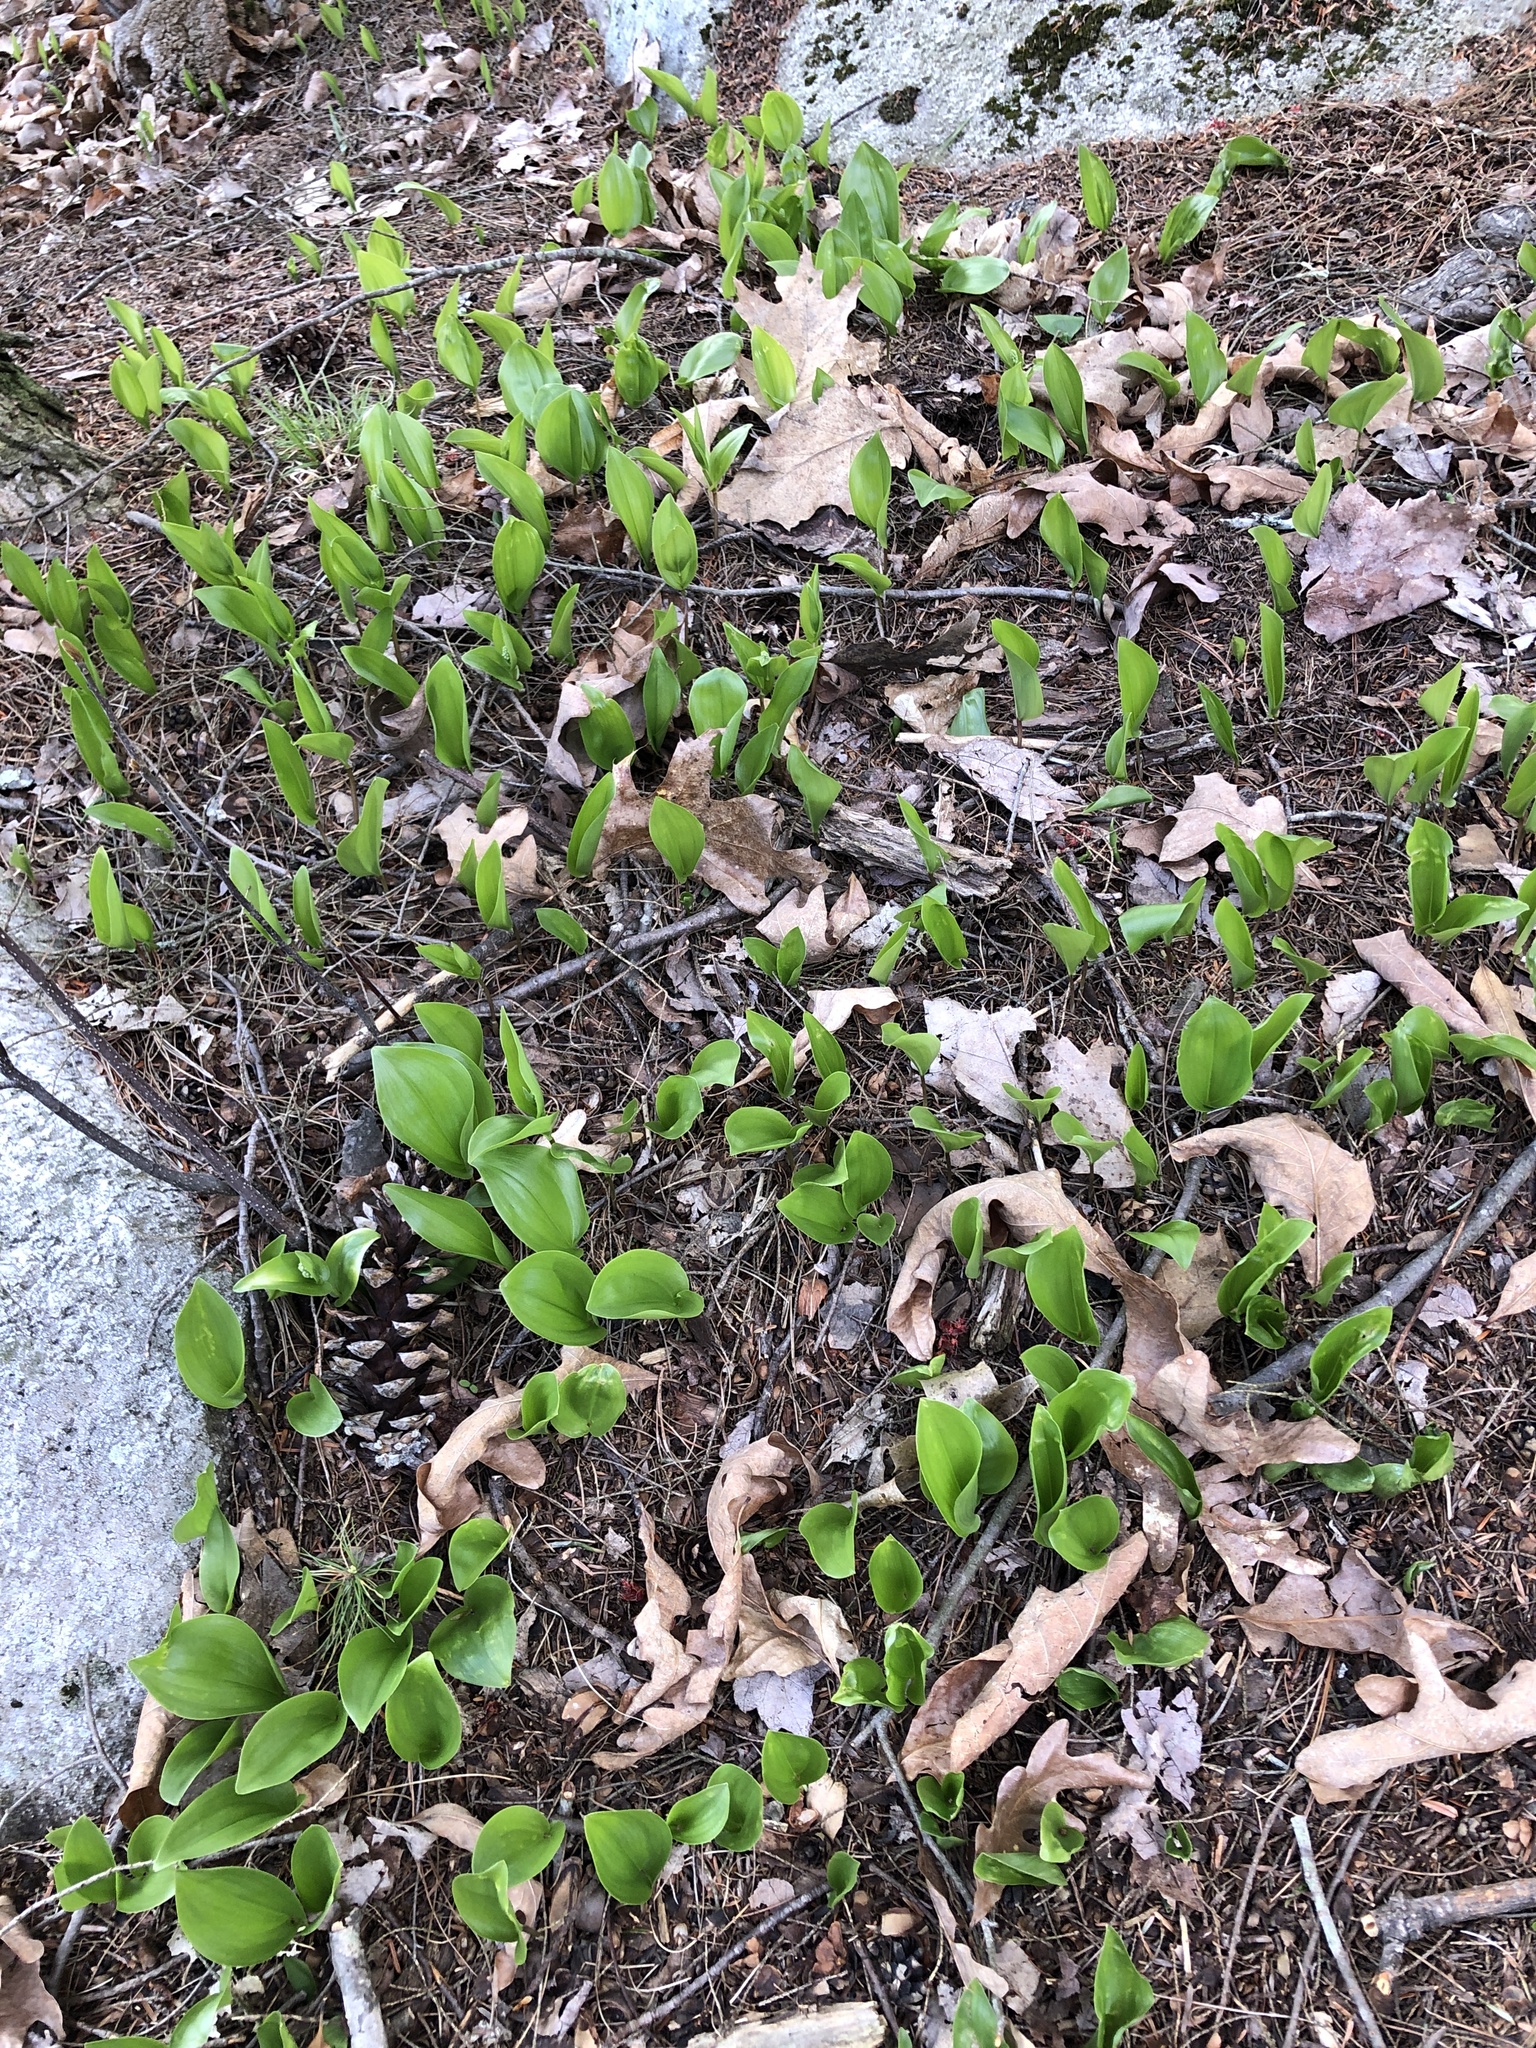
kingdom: Plantae
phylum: Tracheophyta
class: Liliopsida
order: Asparagales
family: Asparagaceae
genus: Maianthemum
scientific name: Maianthemum canadense
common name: False lily-of-the-valley
